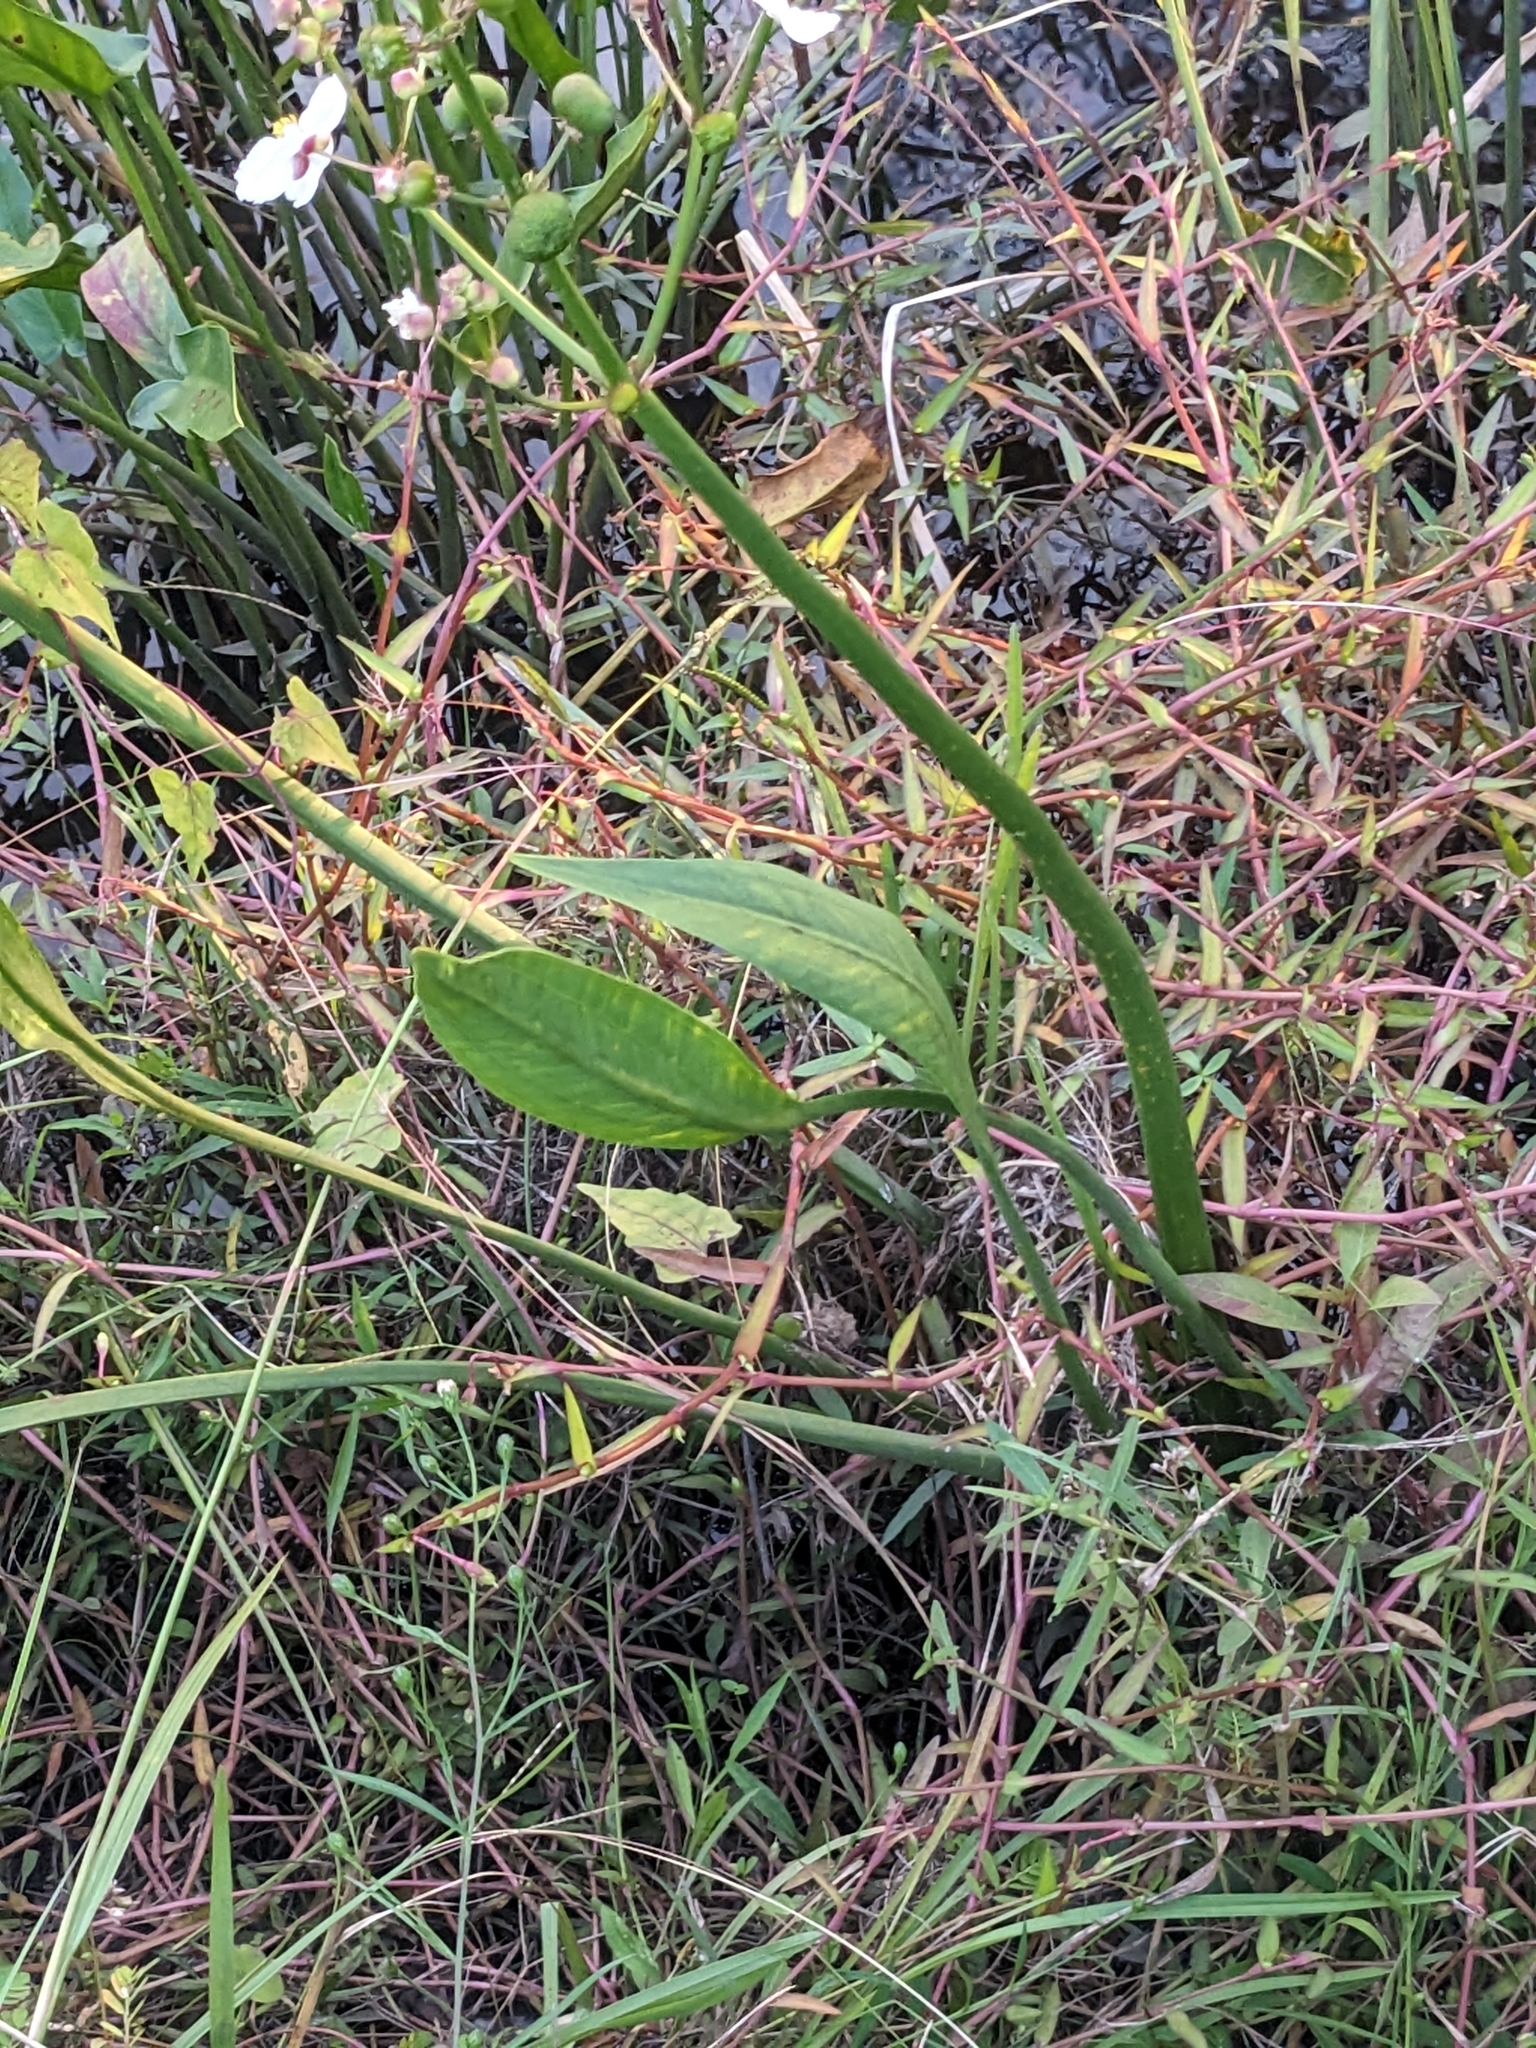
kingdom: Plantae
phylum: Tracheophyta
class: Liliopsida
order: Alismatales
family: Alismataceae
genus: Sagittaria
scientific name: Sagittaria lancifolia
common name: Lance-leaf arrowhead
